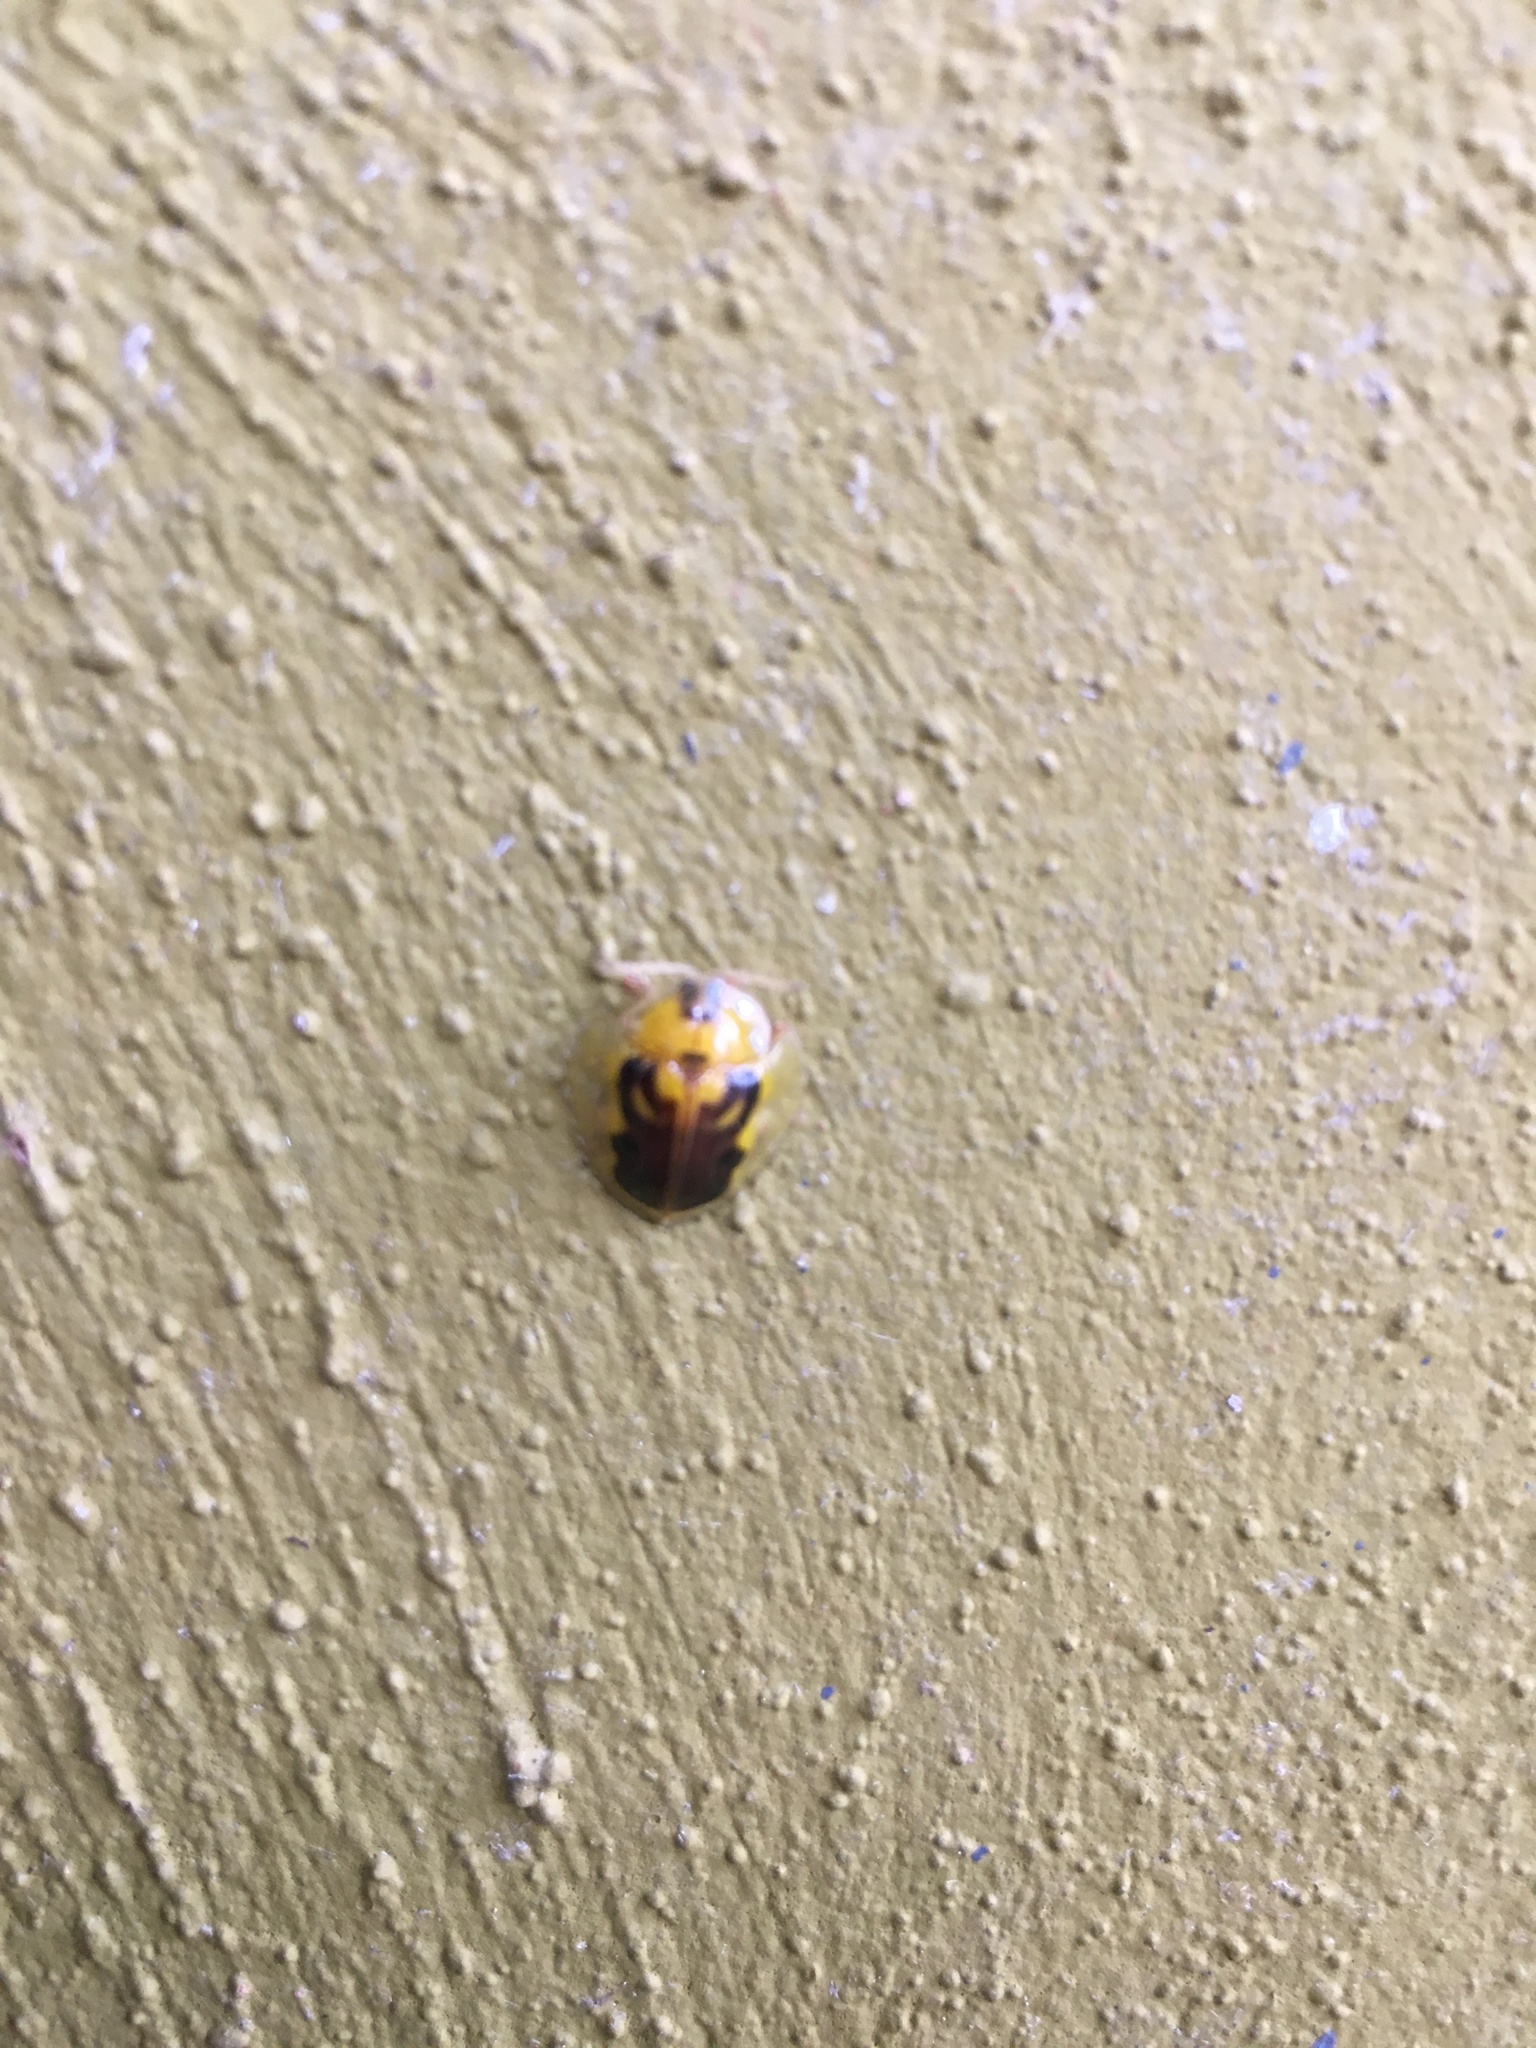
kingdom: Animalia
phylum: Arthropoda
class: Insecta
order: Coleoptera
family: Chrysomelidae
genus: Eurypepla
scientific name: Eurypepla brevilineata
